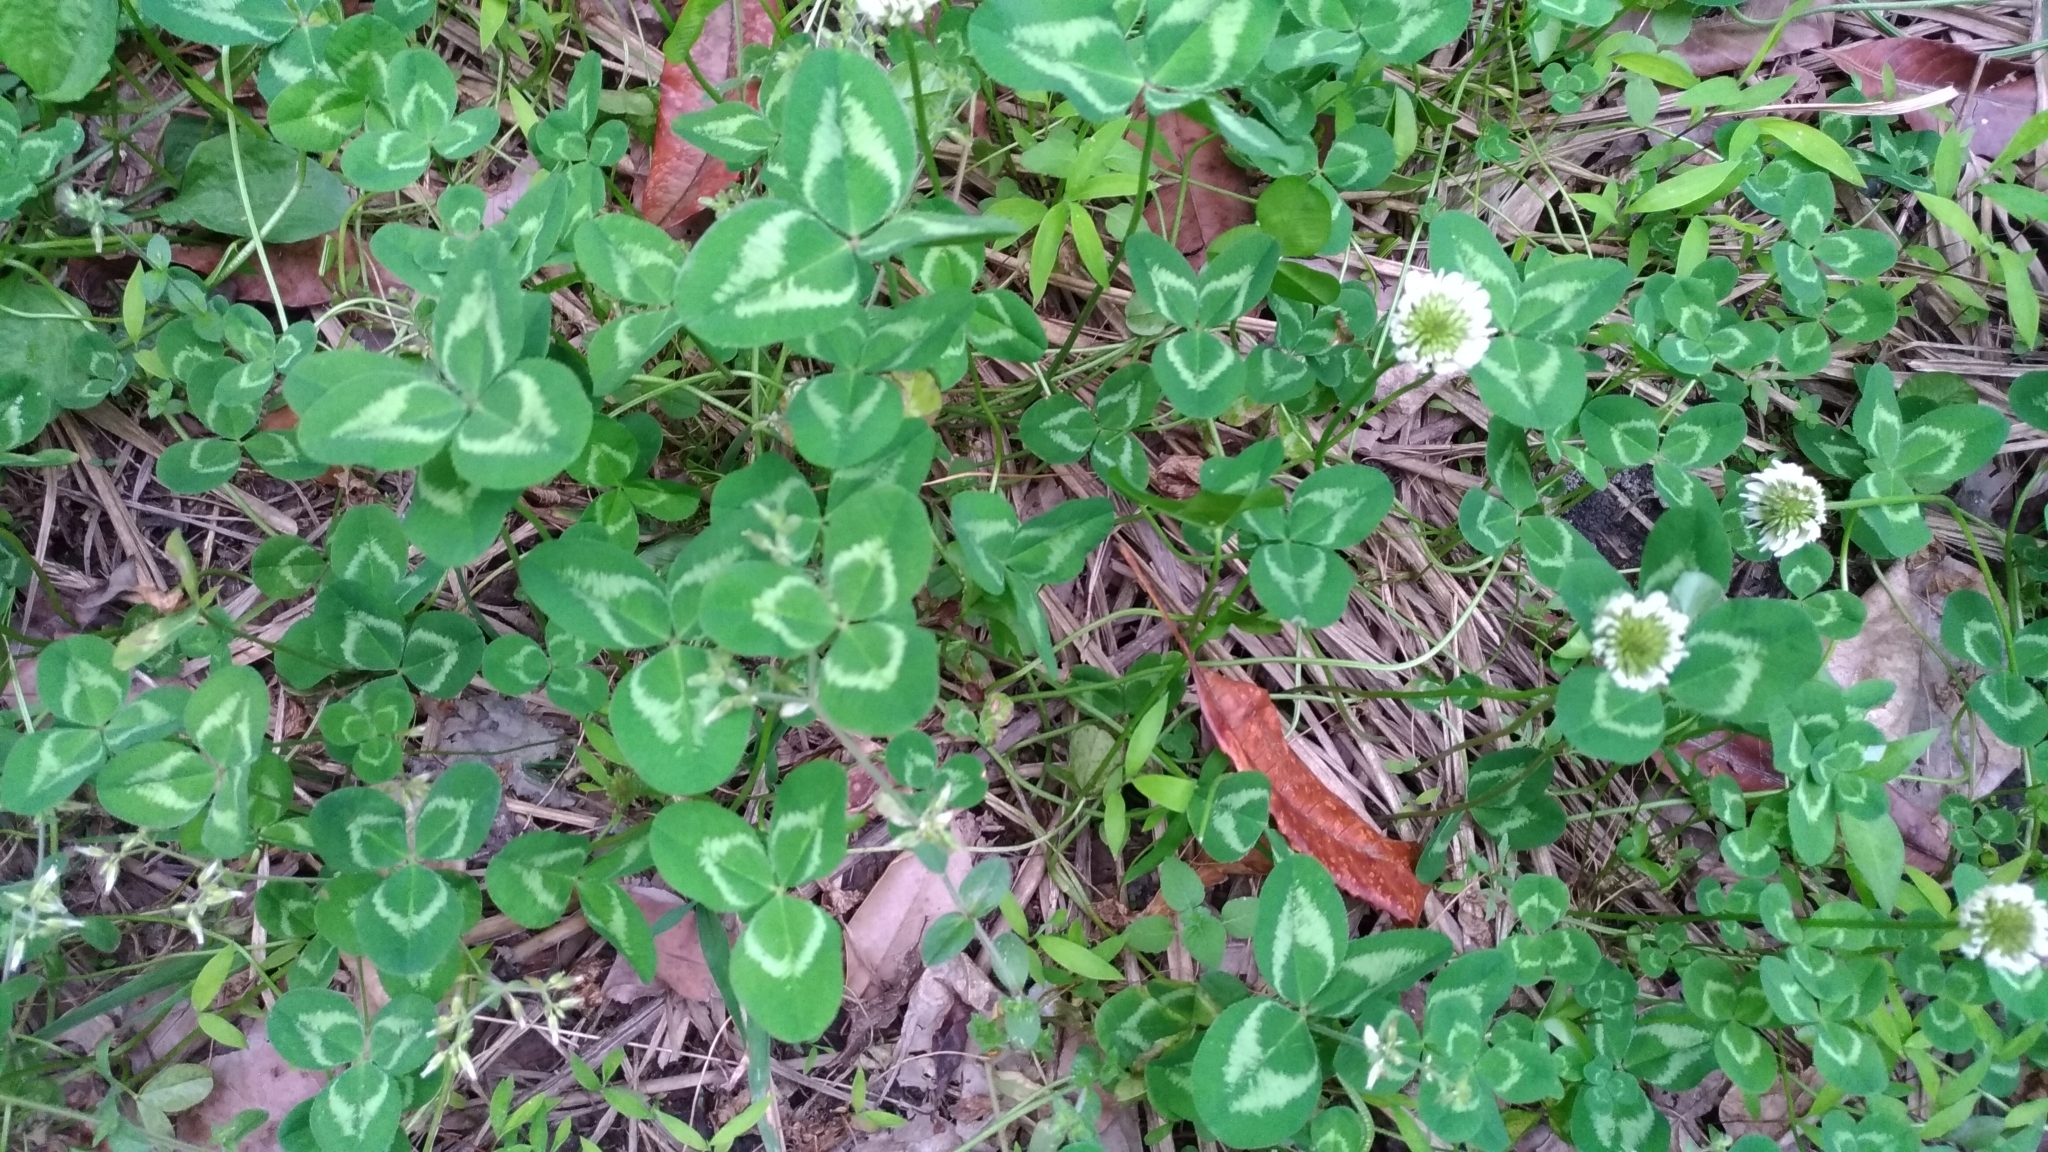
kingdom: Plantae
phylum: Tracheophyta
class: Magnoliopsida
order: Fabales
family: Fabaceae
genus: Trifolium
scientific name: Trifolium repens
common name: White clover
